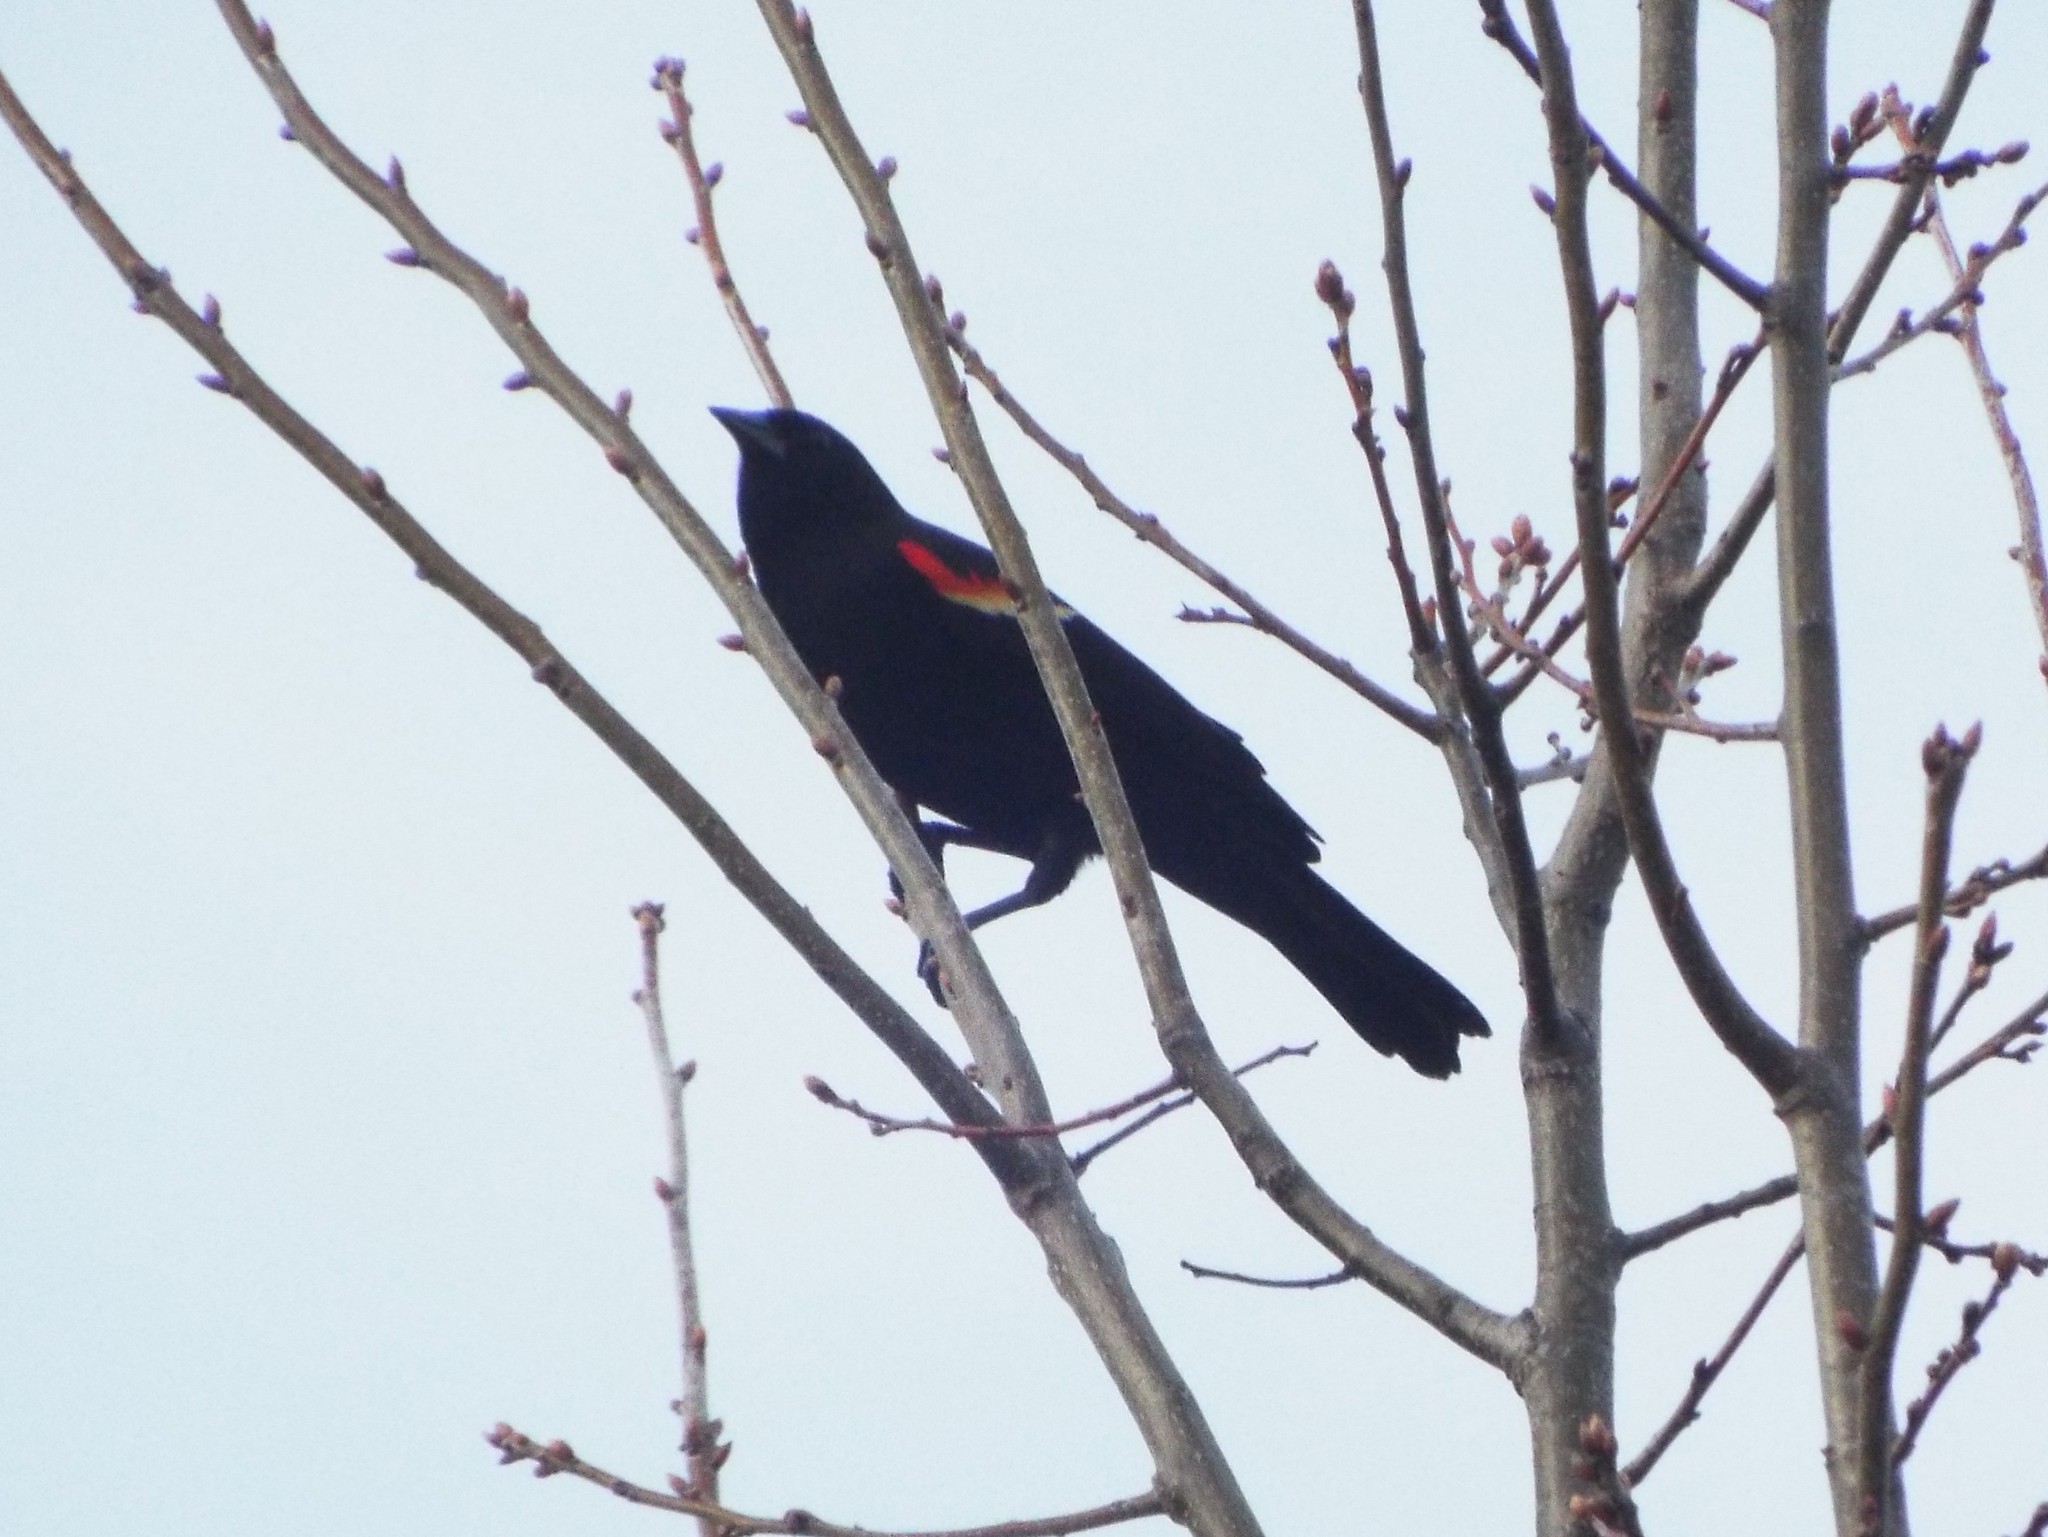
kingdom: Animalia
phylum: Chordata
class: Aves
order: Passeriformes
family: Icteridae
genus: Agelaius
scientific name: Agelaius phoeniceus
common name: Red-winged blackbird
